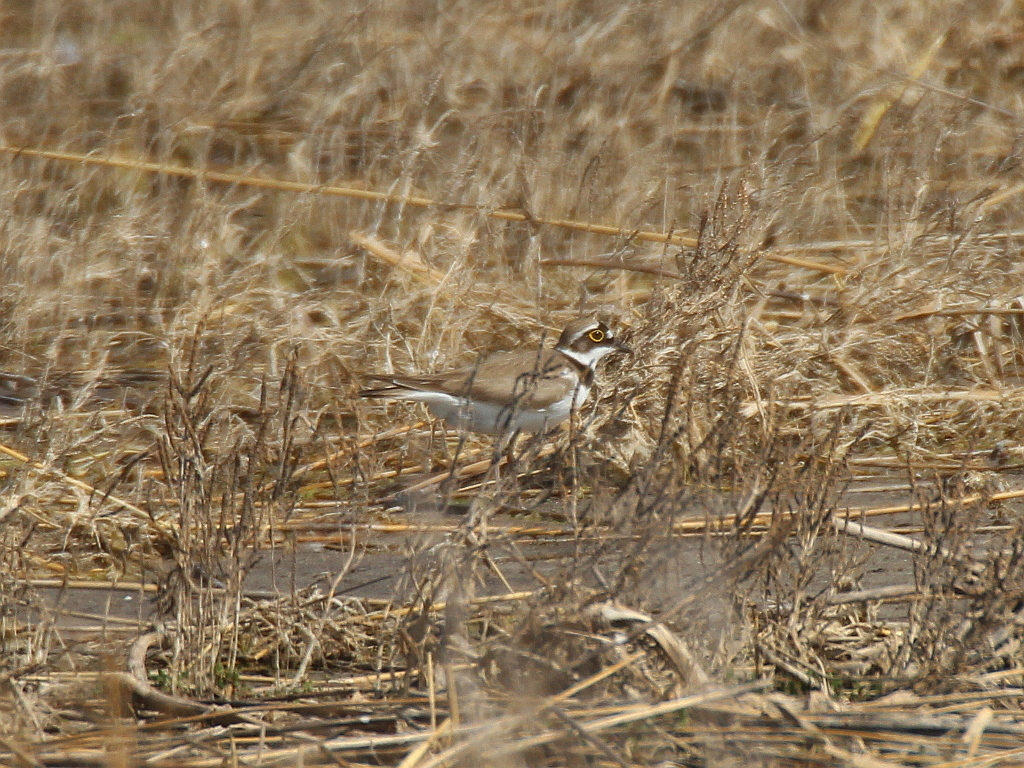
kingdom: Animalia
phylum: Chordata
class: Aves
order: Charadriiformes
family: Charadriidae
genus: Charadrius
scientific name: Charadrius dubius
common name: Little ringed plover
